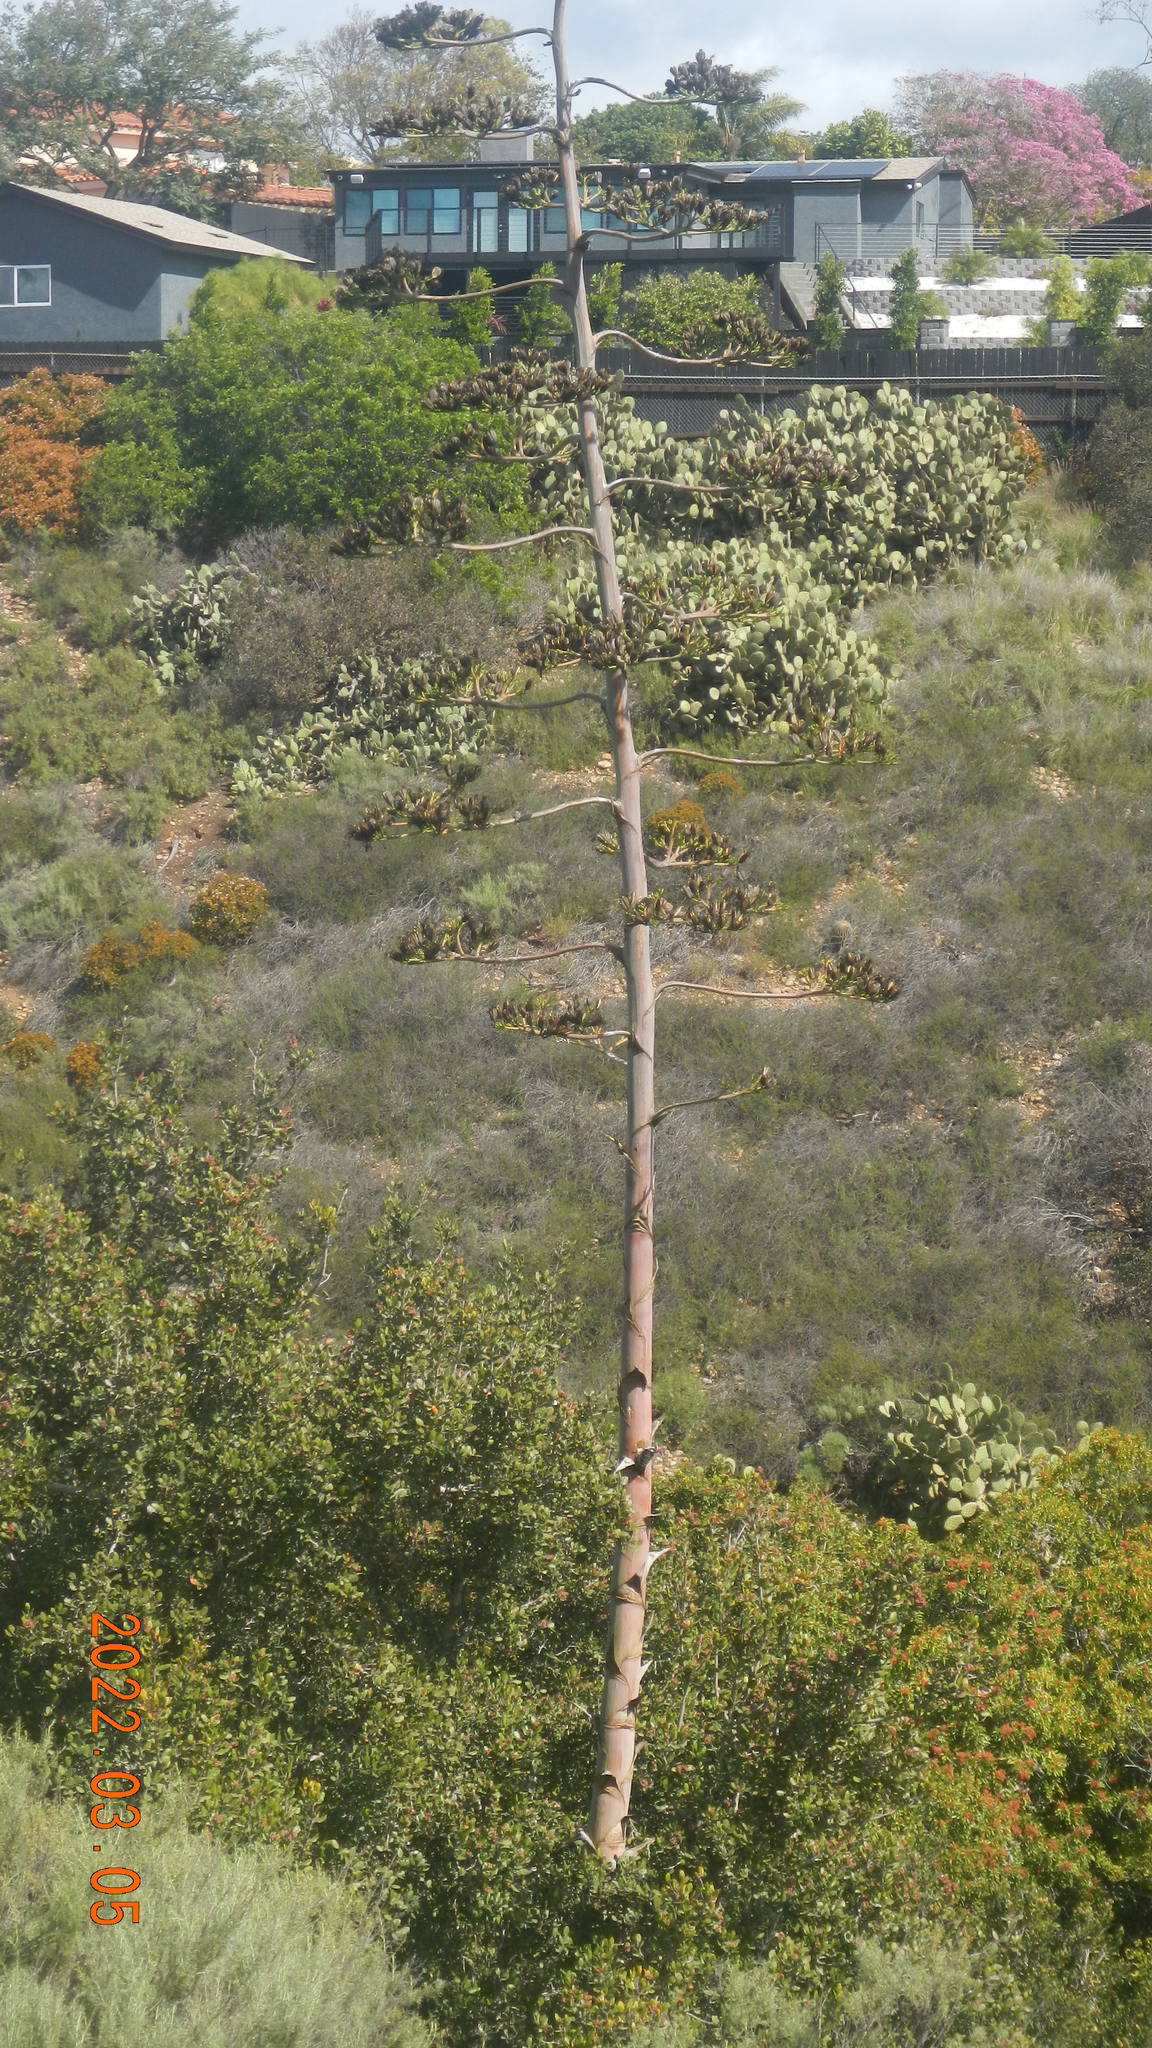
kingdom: Animalia
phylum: Chordata
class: Aves
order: Piciformes
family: Picidae
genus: Dryobates
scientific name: Dryobates nuttallii
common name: Nuttall's woodpecker
